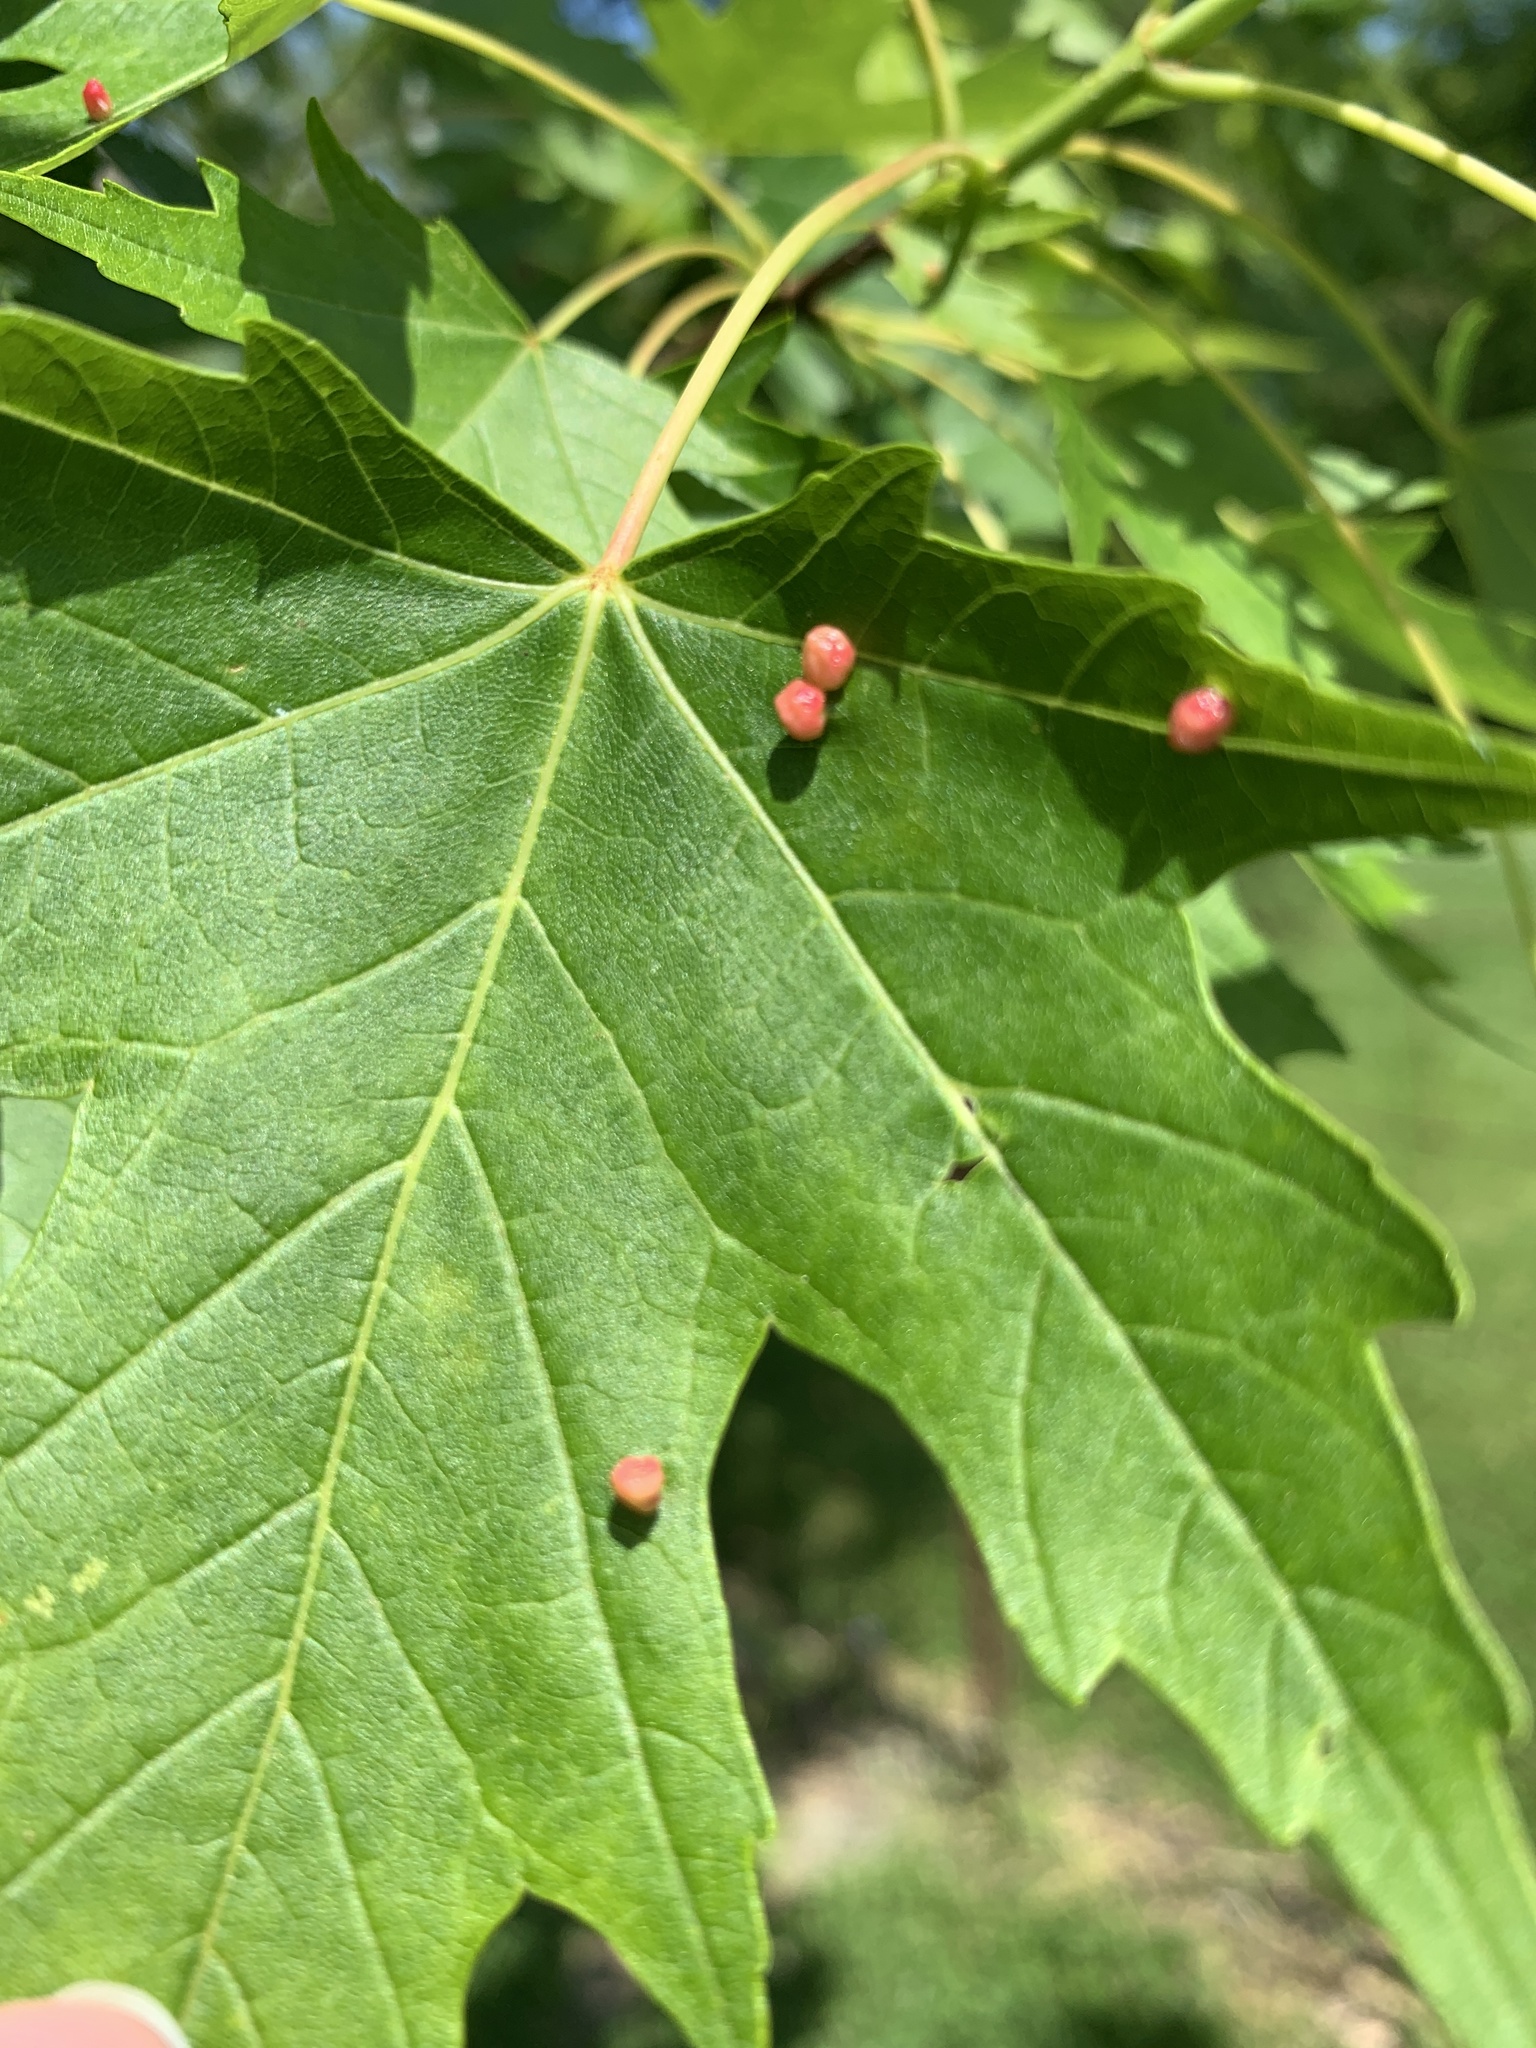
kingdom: Animalia
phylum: Arthropoda
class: Arachnida
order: Trombidiformes
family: Eriophyidae
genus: Vasates
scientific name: Vasates quadripedes
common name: Maple bladder gall mite
